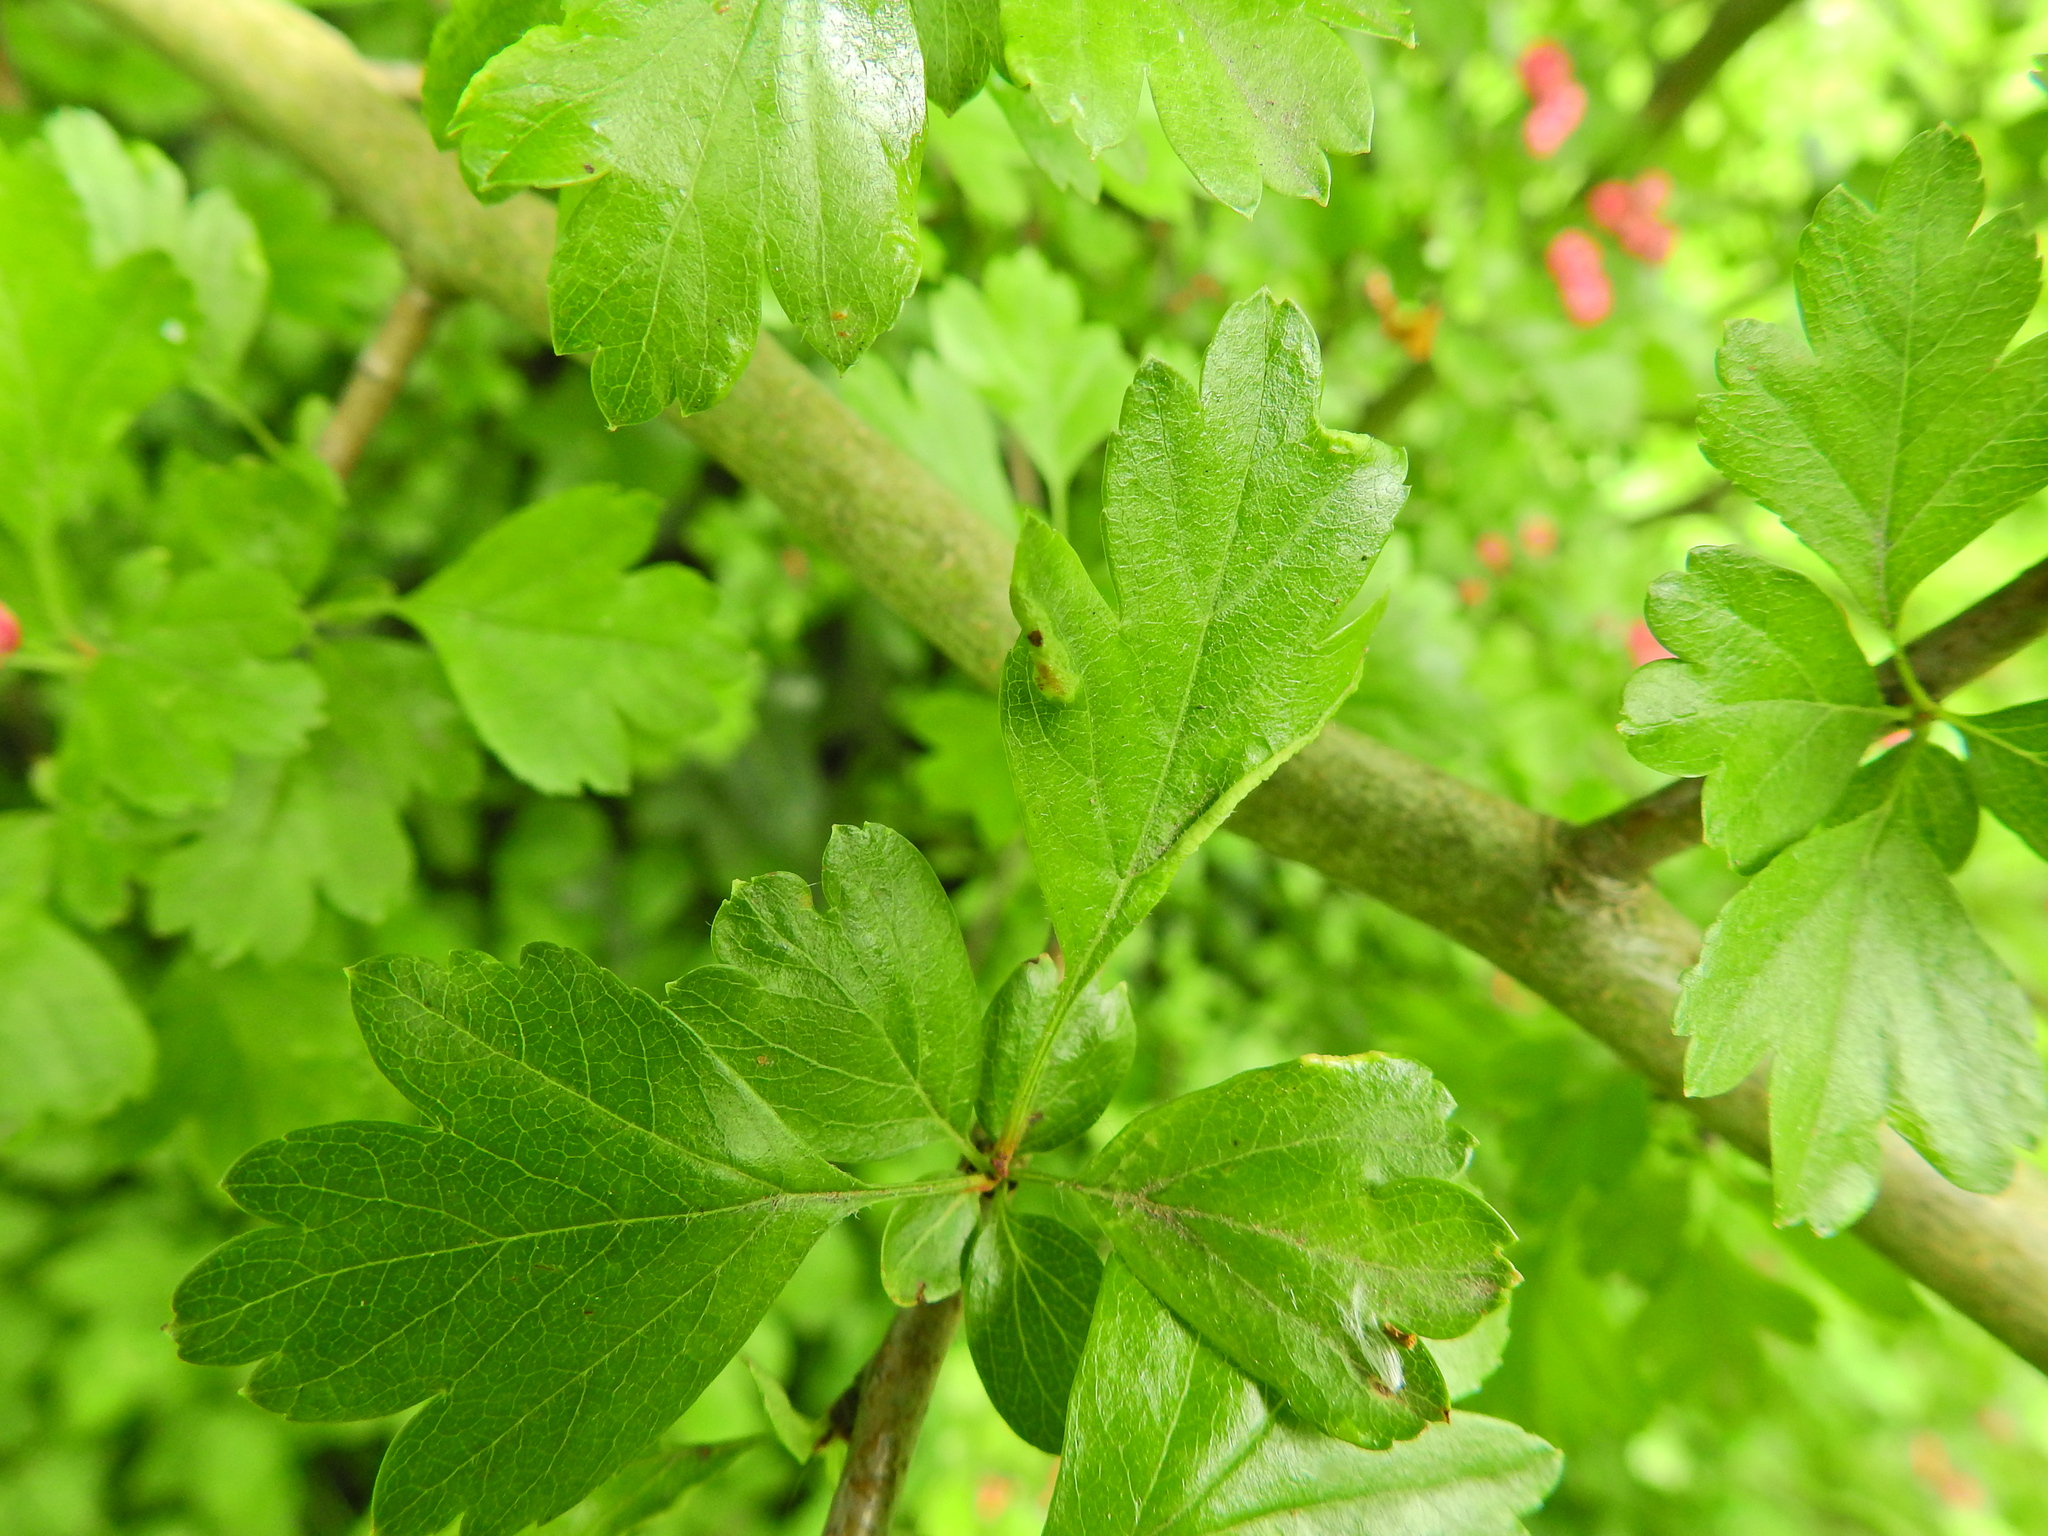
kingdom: Animalia
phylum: Arthropoda
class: Arachnida
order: Trombidiformes
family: Eriophyidae
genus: Phyllocoptes
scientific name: Phyllocoptes goniothorax
